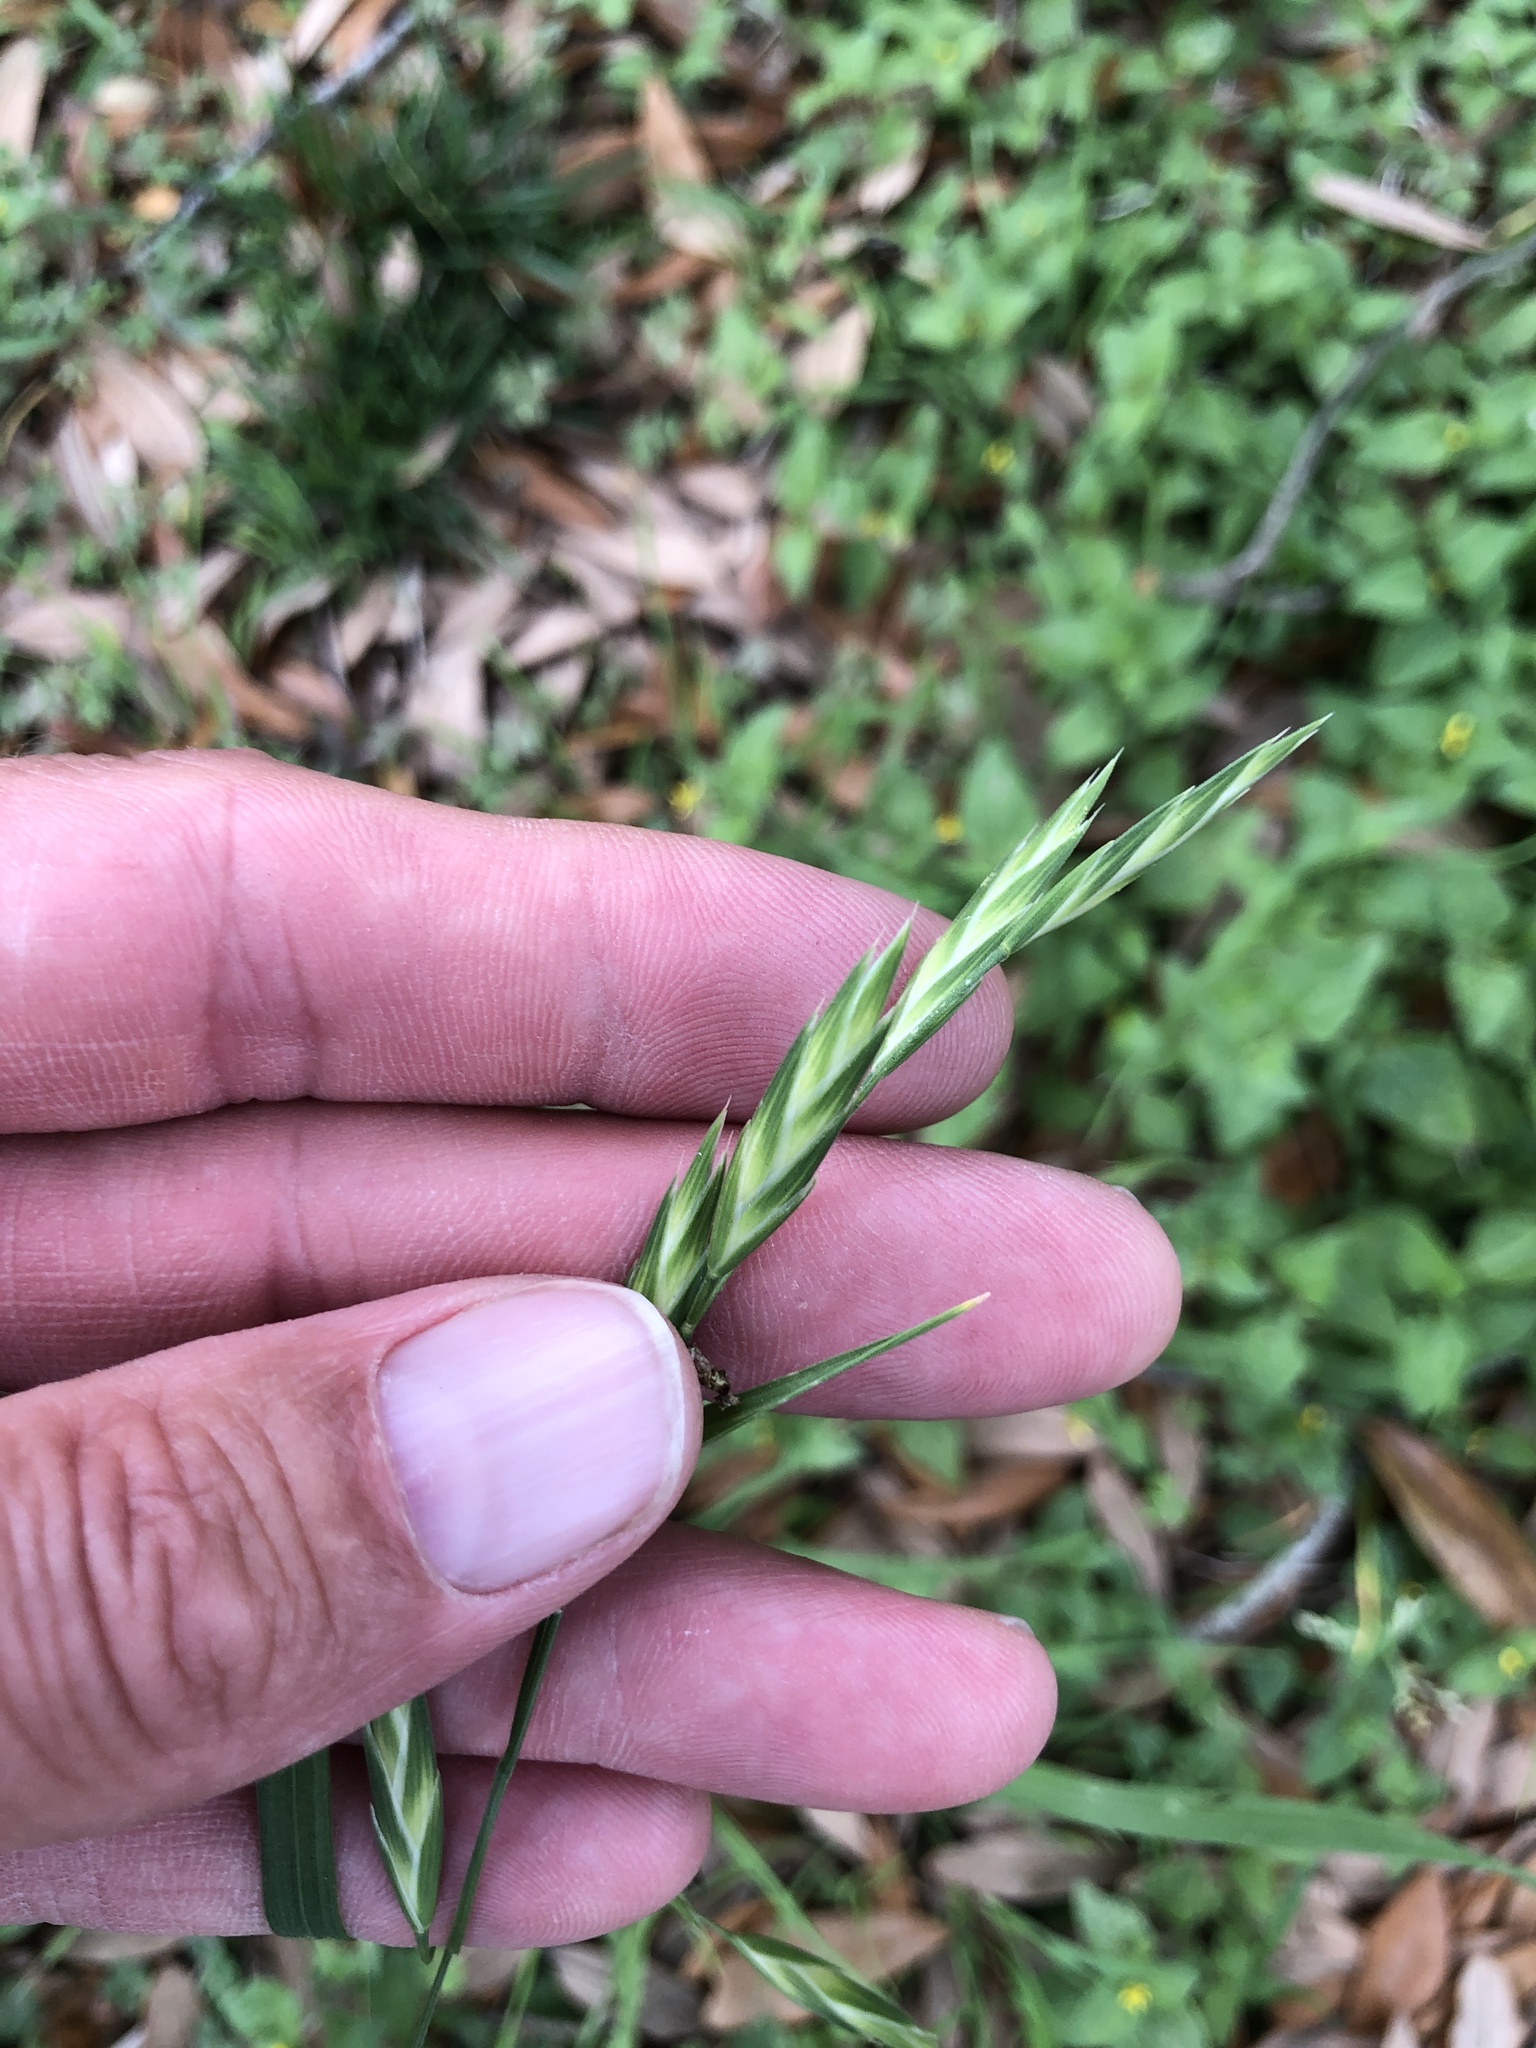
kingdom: Plantae
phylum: Tracheophyta
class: Liliopsida
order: Poales
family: Poaceae
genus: Bromus
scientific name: Bromus catharticus
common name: Rescuegrass
